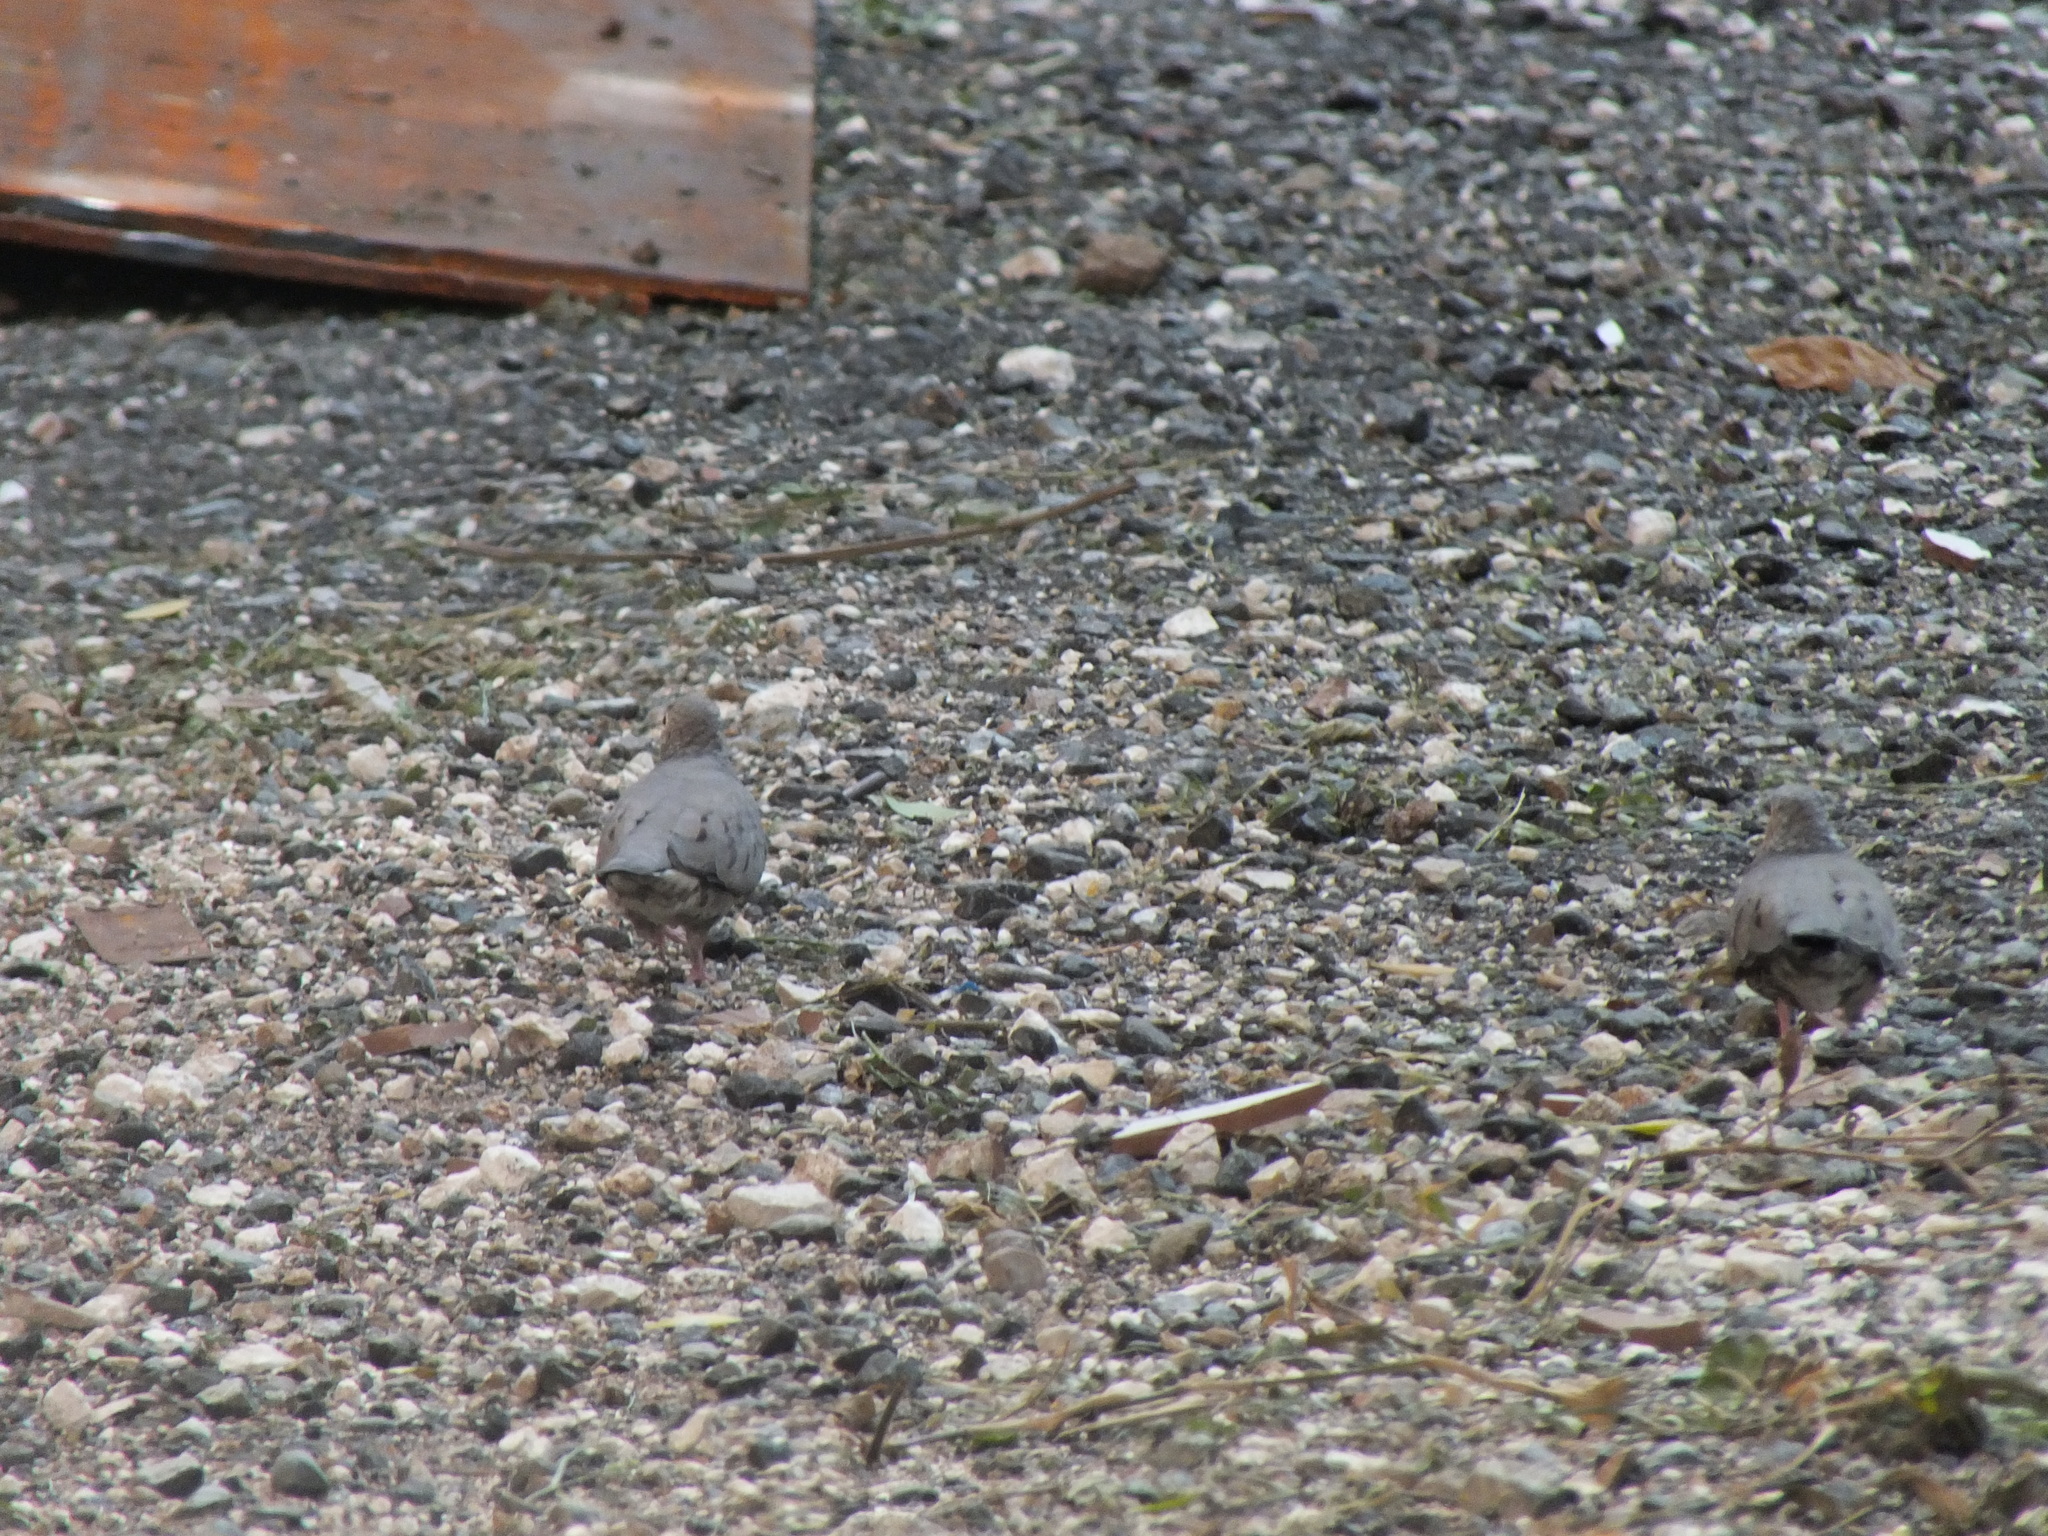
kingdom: Animalia
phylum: Chordata
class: Aves
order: Columbiformes
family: Columbidae
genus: Columbina
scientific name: Columbina passerina
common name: Common ground-dove
